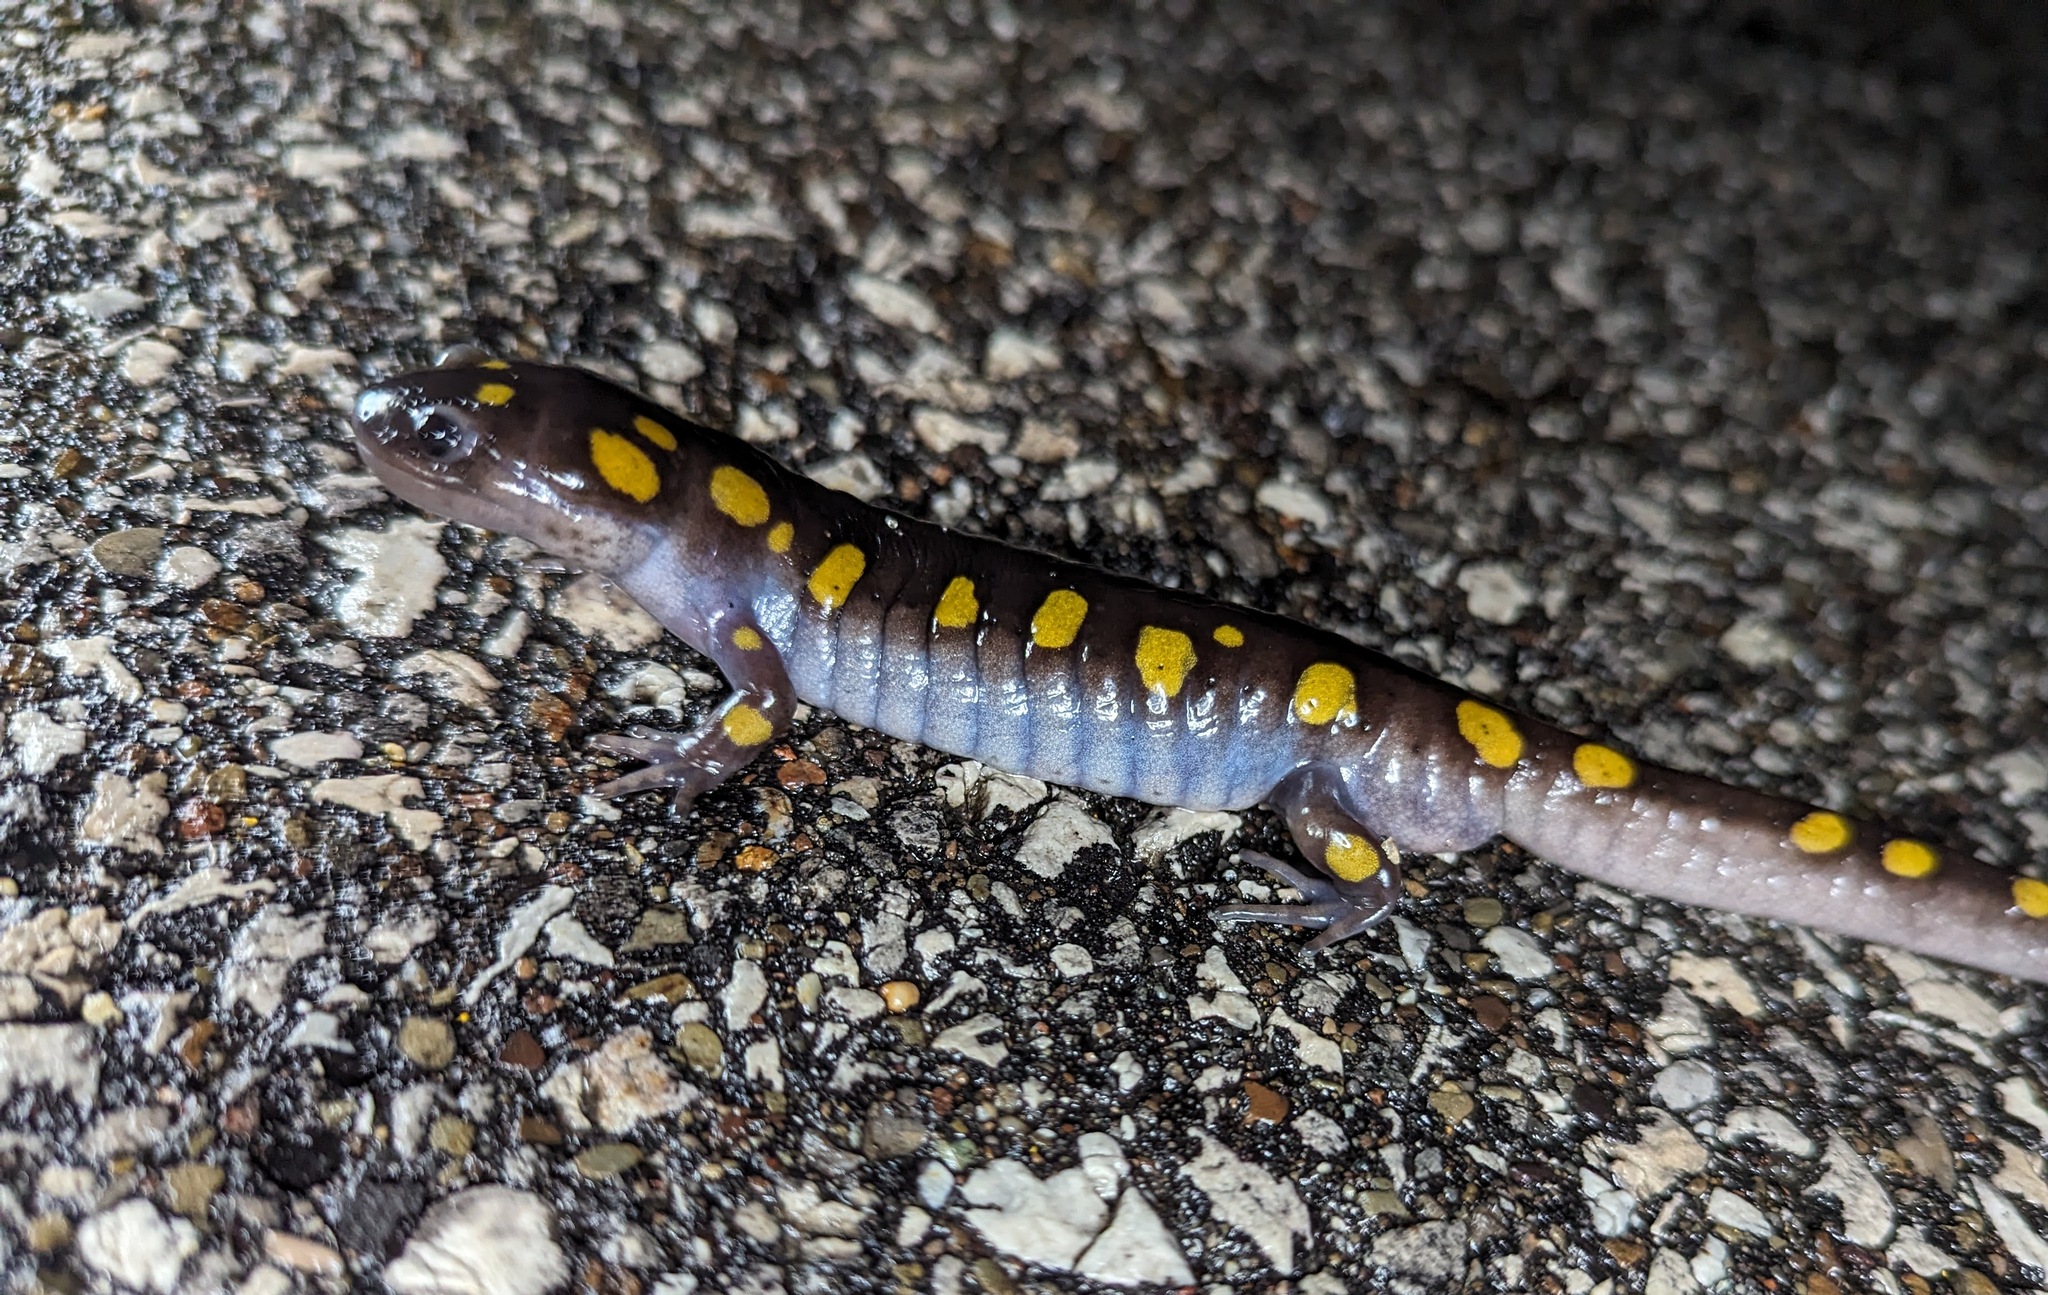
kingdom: Animalia
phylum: Chordata
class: Amphibia
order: Caudata
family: Ambystomatidae
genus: Ambystoma
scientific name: Ambystoma maculatum
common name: Spotted salamander
